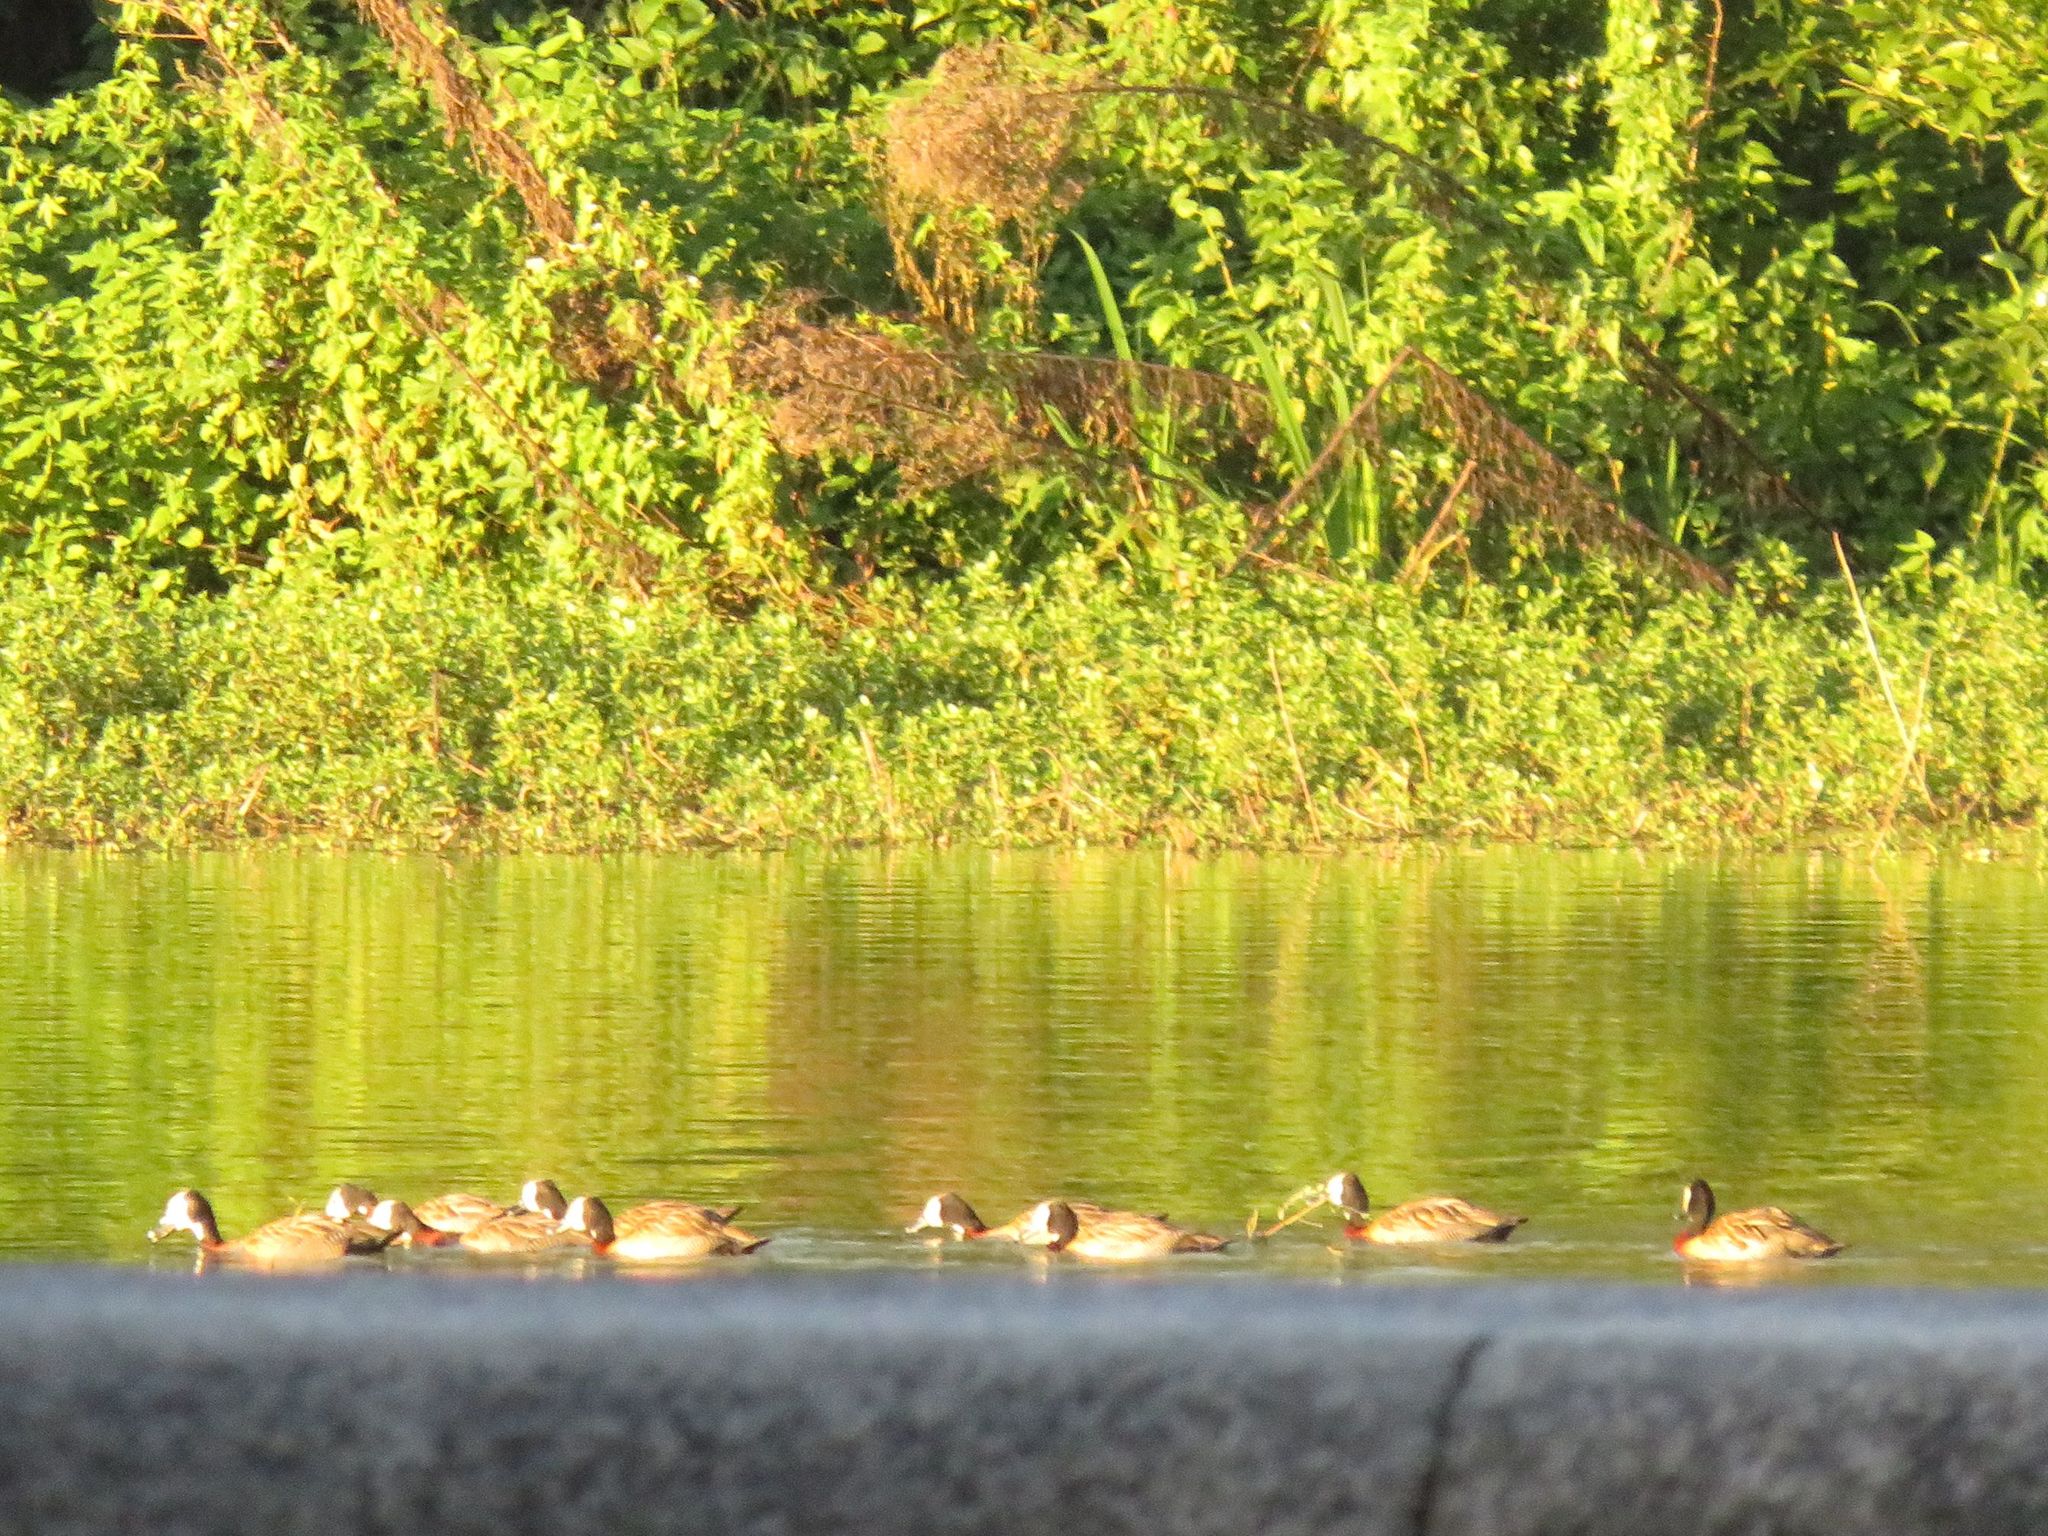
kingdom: Animalia
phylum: Chordata
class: Aves
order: Anseriformes
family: Anatidae
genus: Dendrocygna
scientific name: Dendrocygna viduata
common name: White-faced whistling duck
